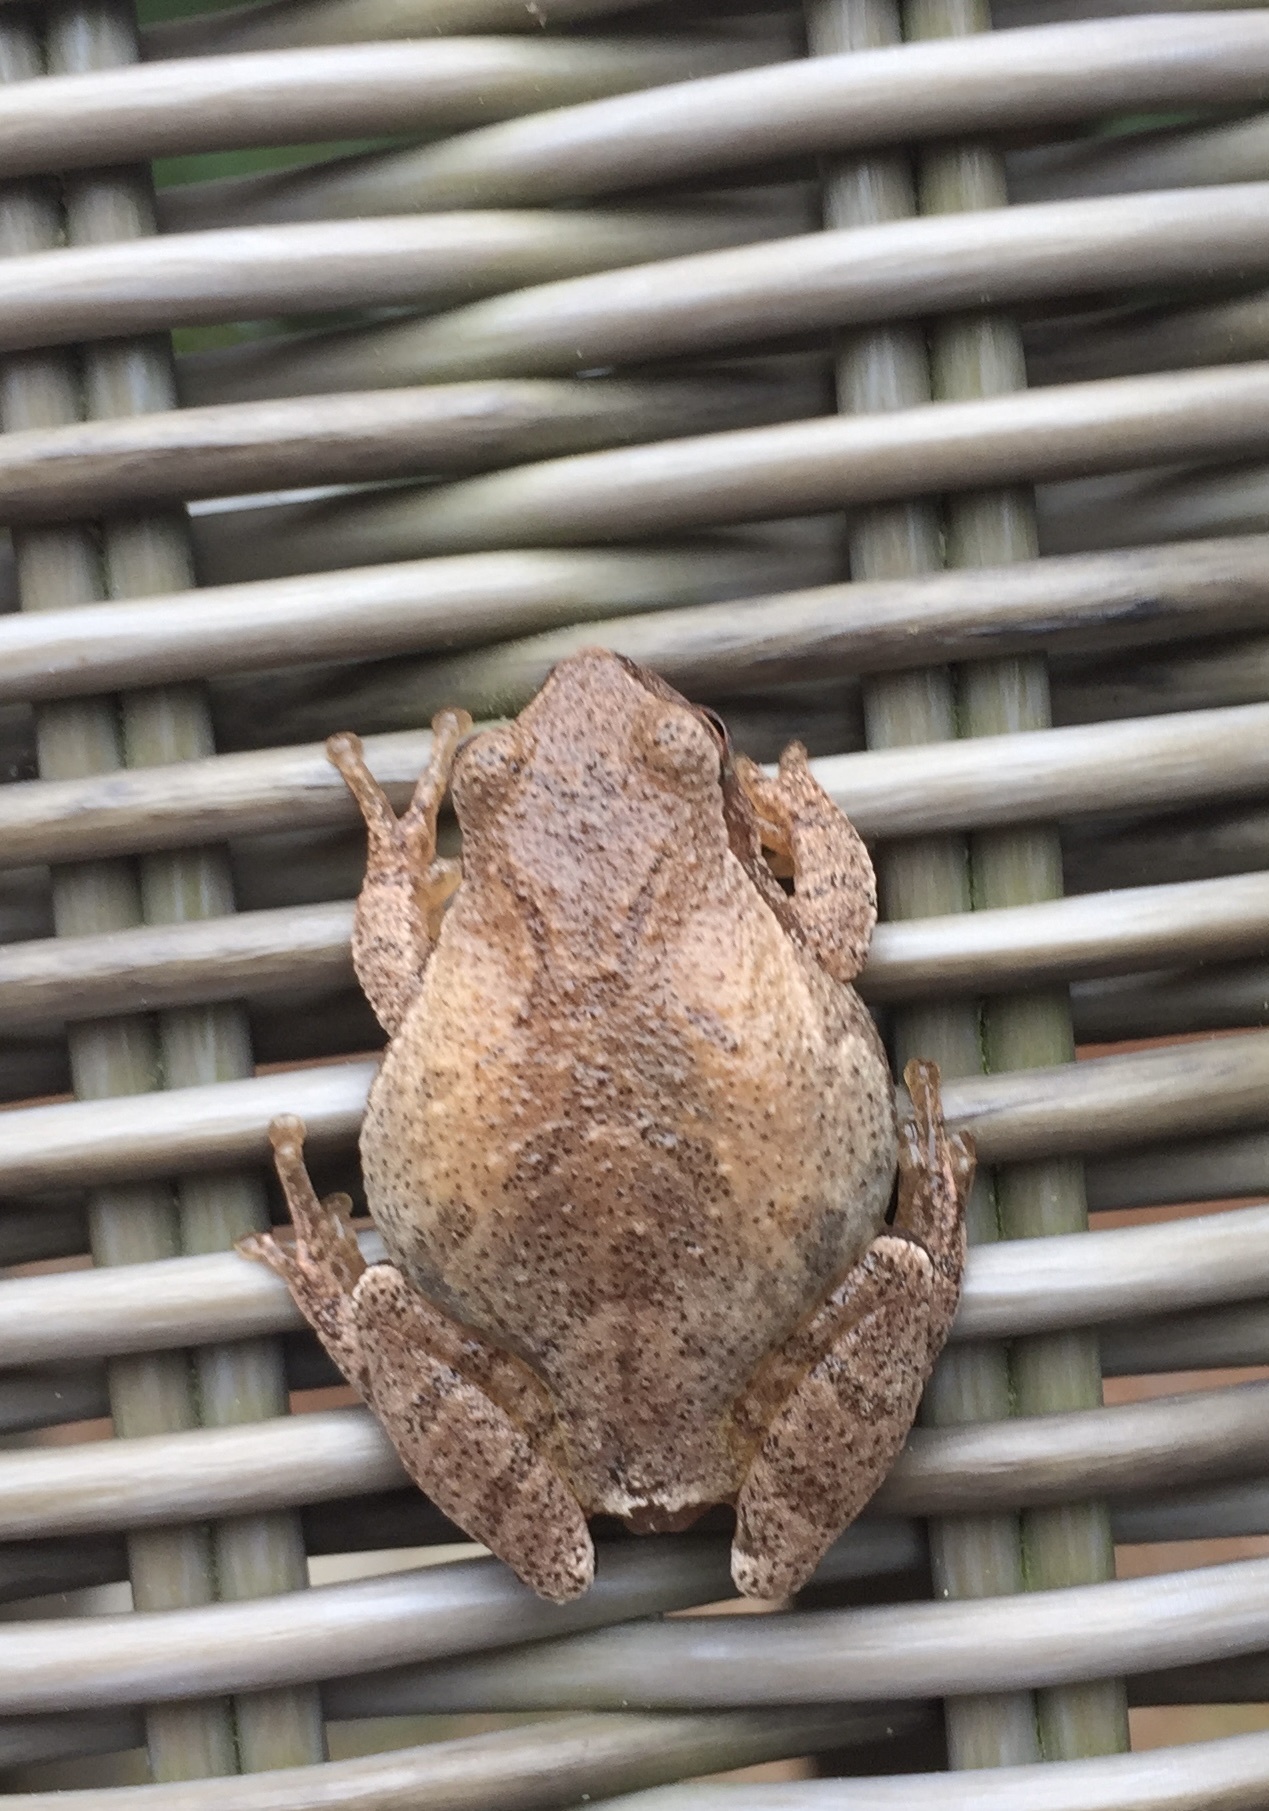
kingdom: Animalia
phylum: Chordata
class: Amphibia
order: Anura
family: Hylidae
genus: Pseudacris
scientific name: Pseudacris crucifer
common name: Spring peeper
